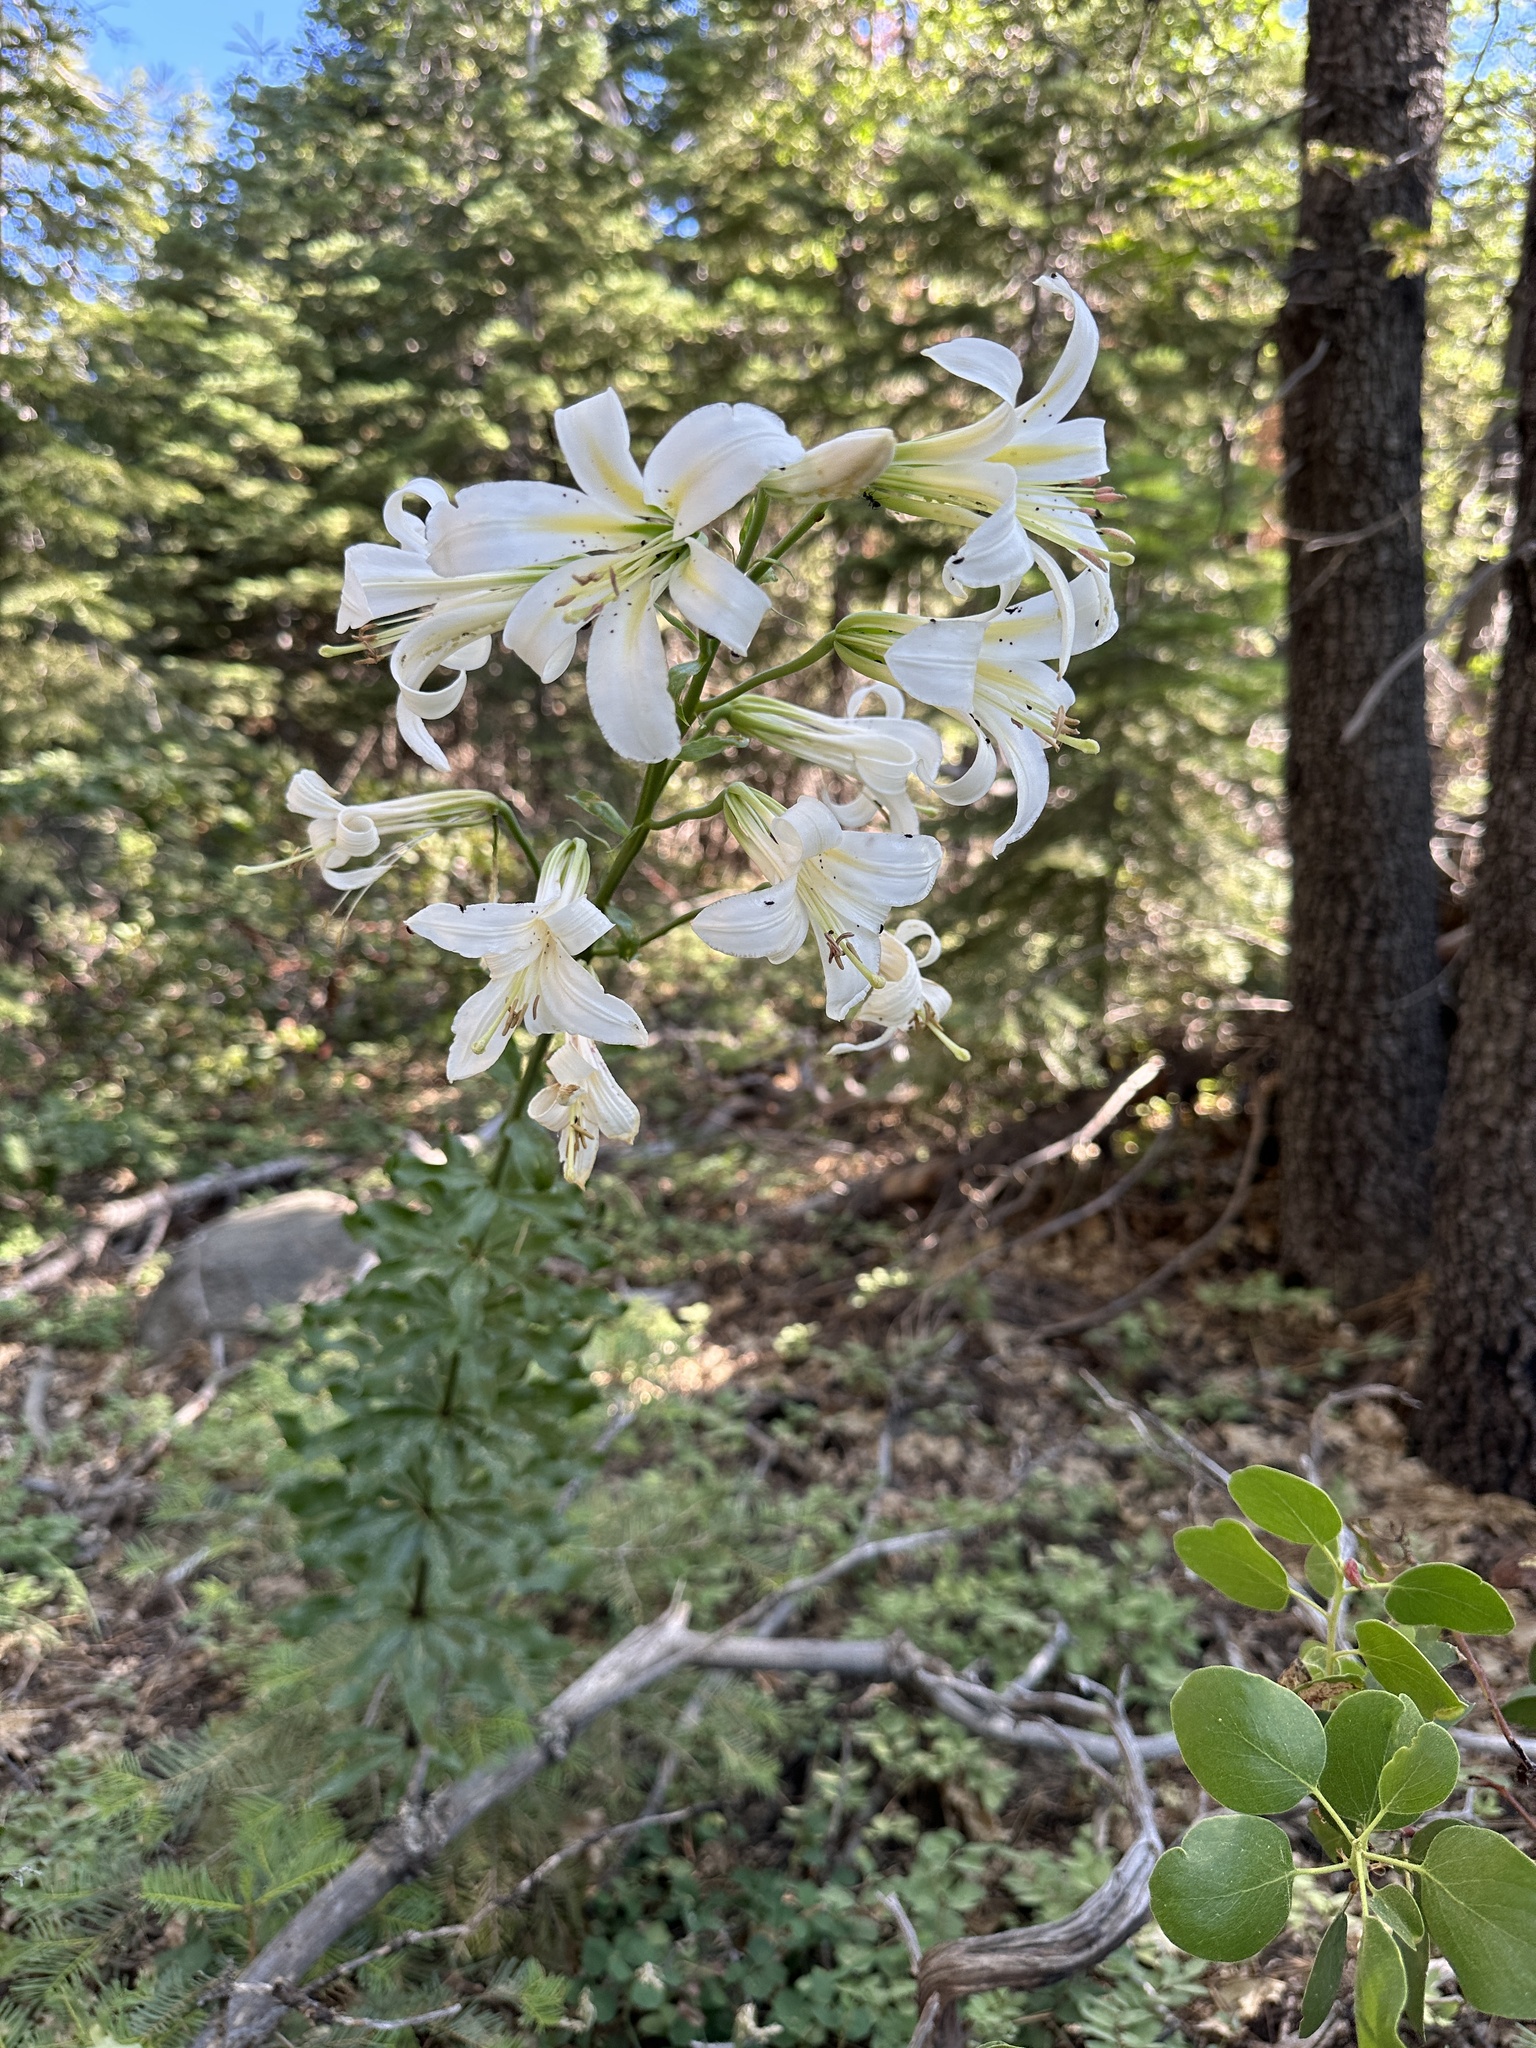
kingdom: Plantae
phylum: Tracheophyta
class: Liliopsida
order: Liliales
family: Liliaceae
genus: Lilium
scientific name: Lilium washingtonianum
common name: Washington lily
